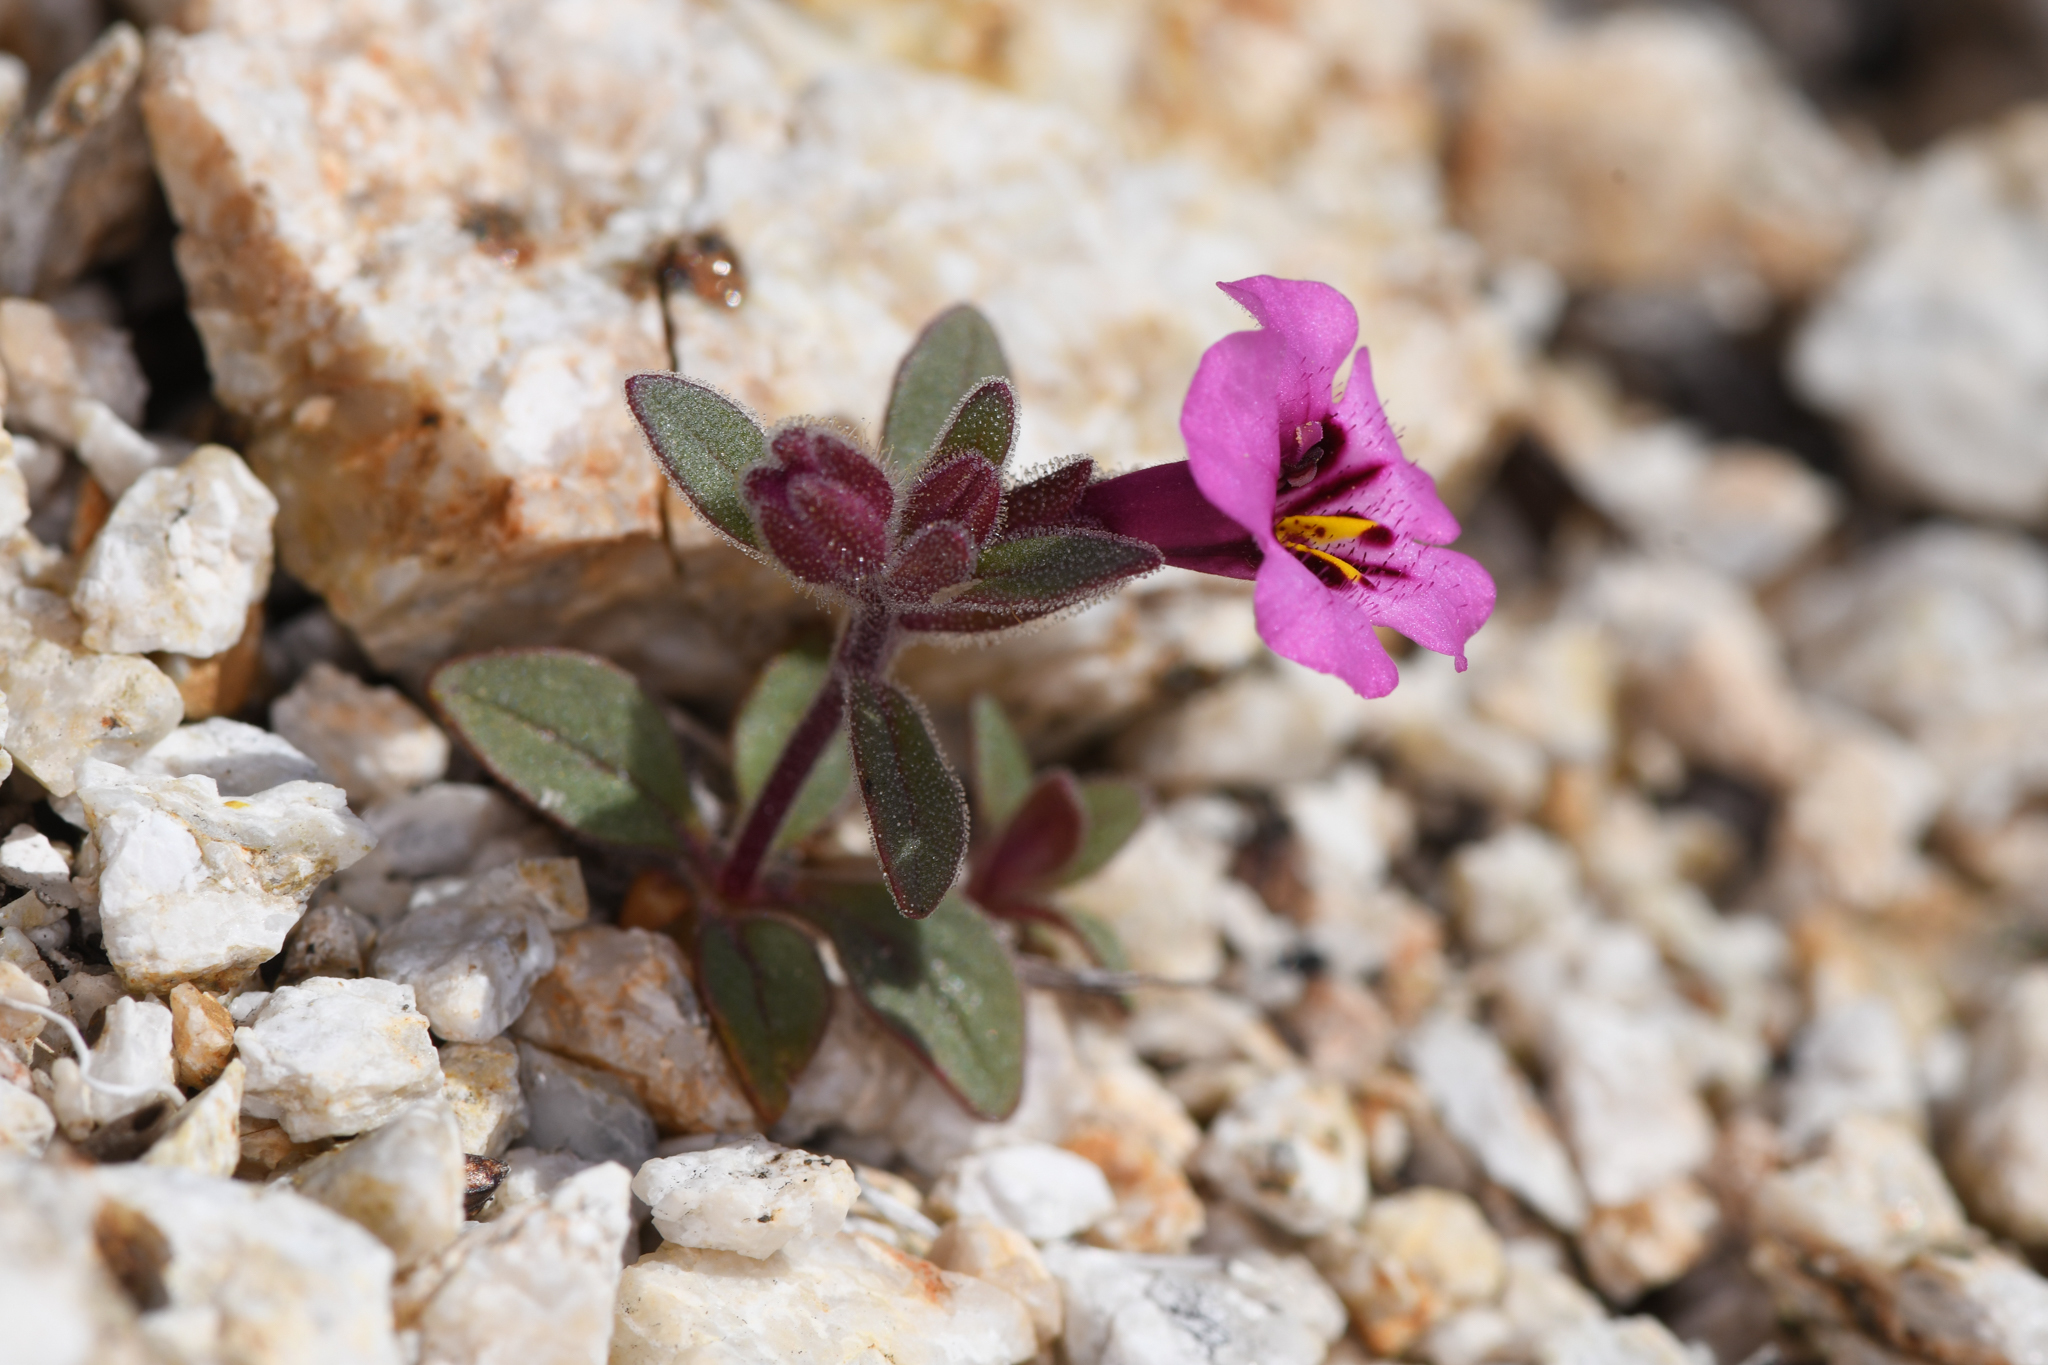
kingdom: Plantae
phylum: Tracheophyta
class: Magnoliopsida
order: Lamiales
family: Phrymaceae
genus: Diplacus
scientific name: Diplacus fremontii
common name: Fremont's monkey-flower
